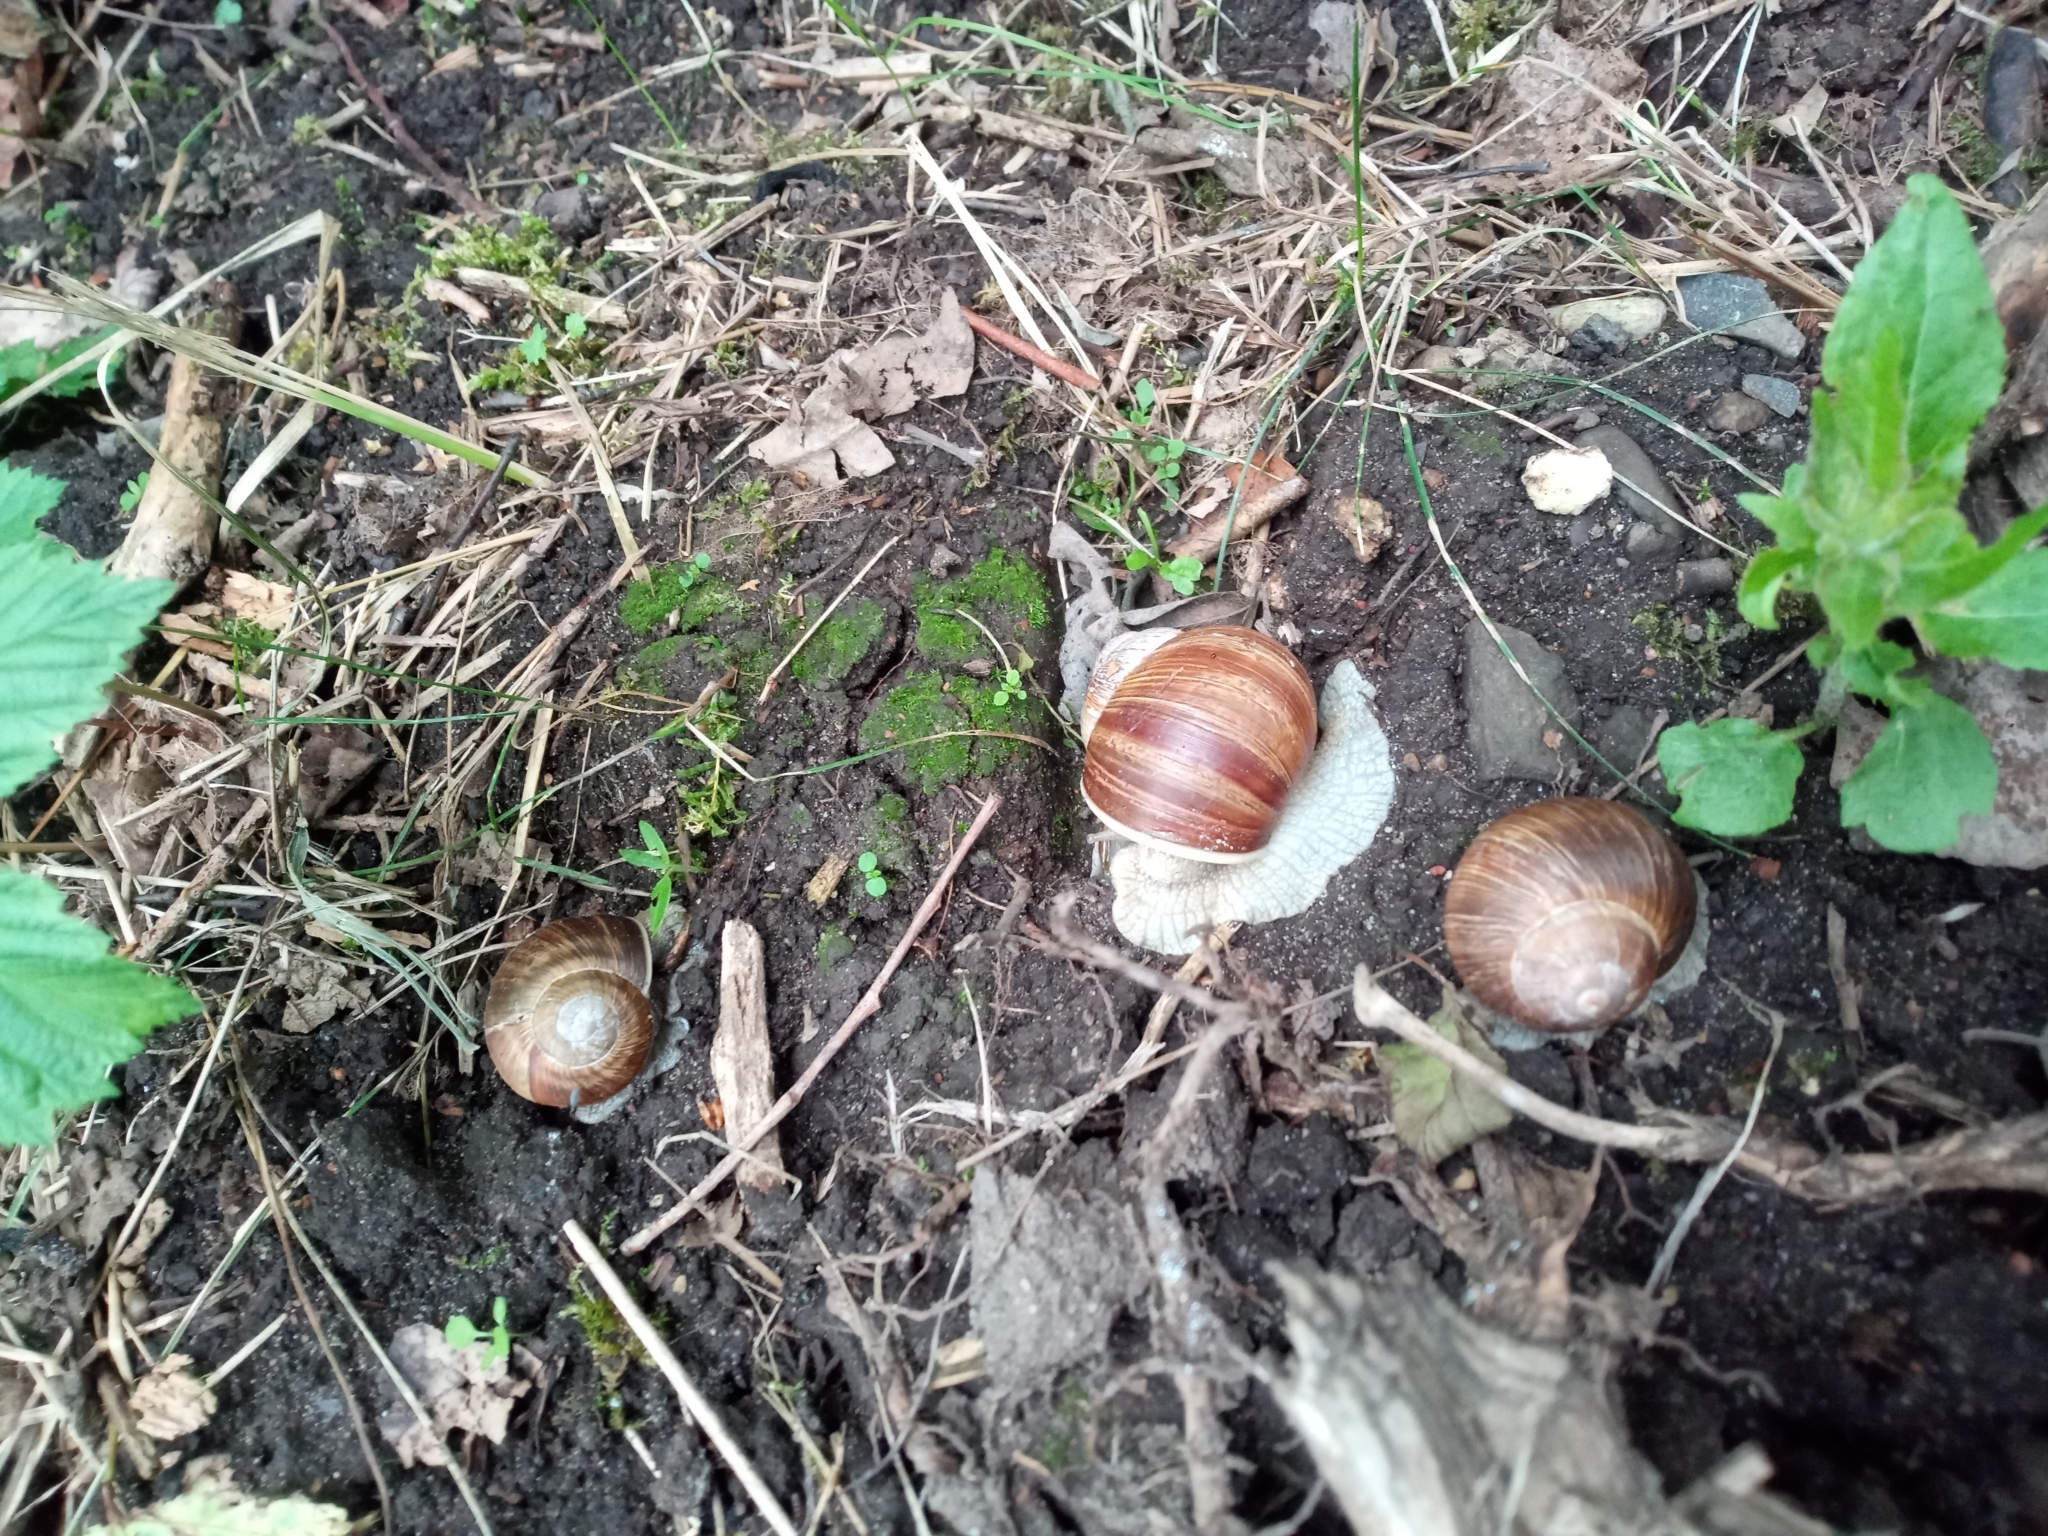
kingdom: Animalia
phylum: Mollusca
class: Gastropoda
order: Stylommatophora
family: Helicidae
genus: Helix
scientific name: Helix pomatia
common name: Roman snail
